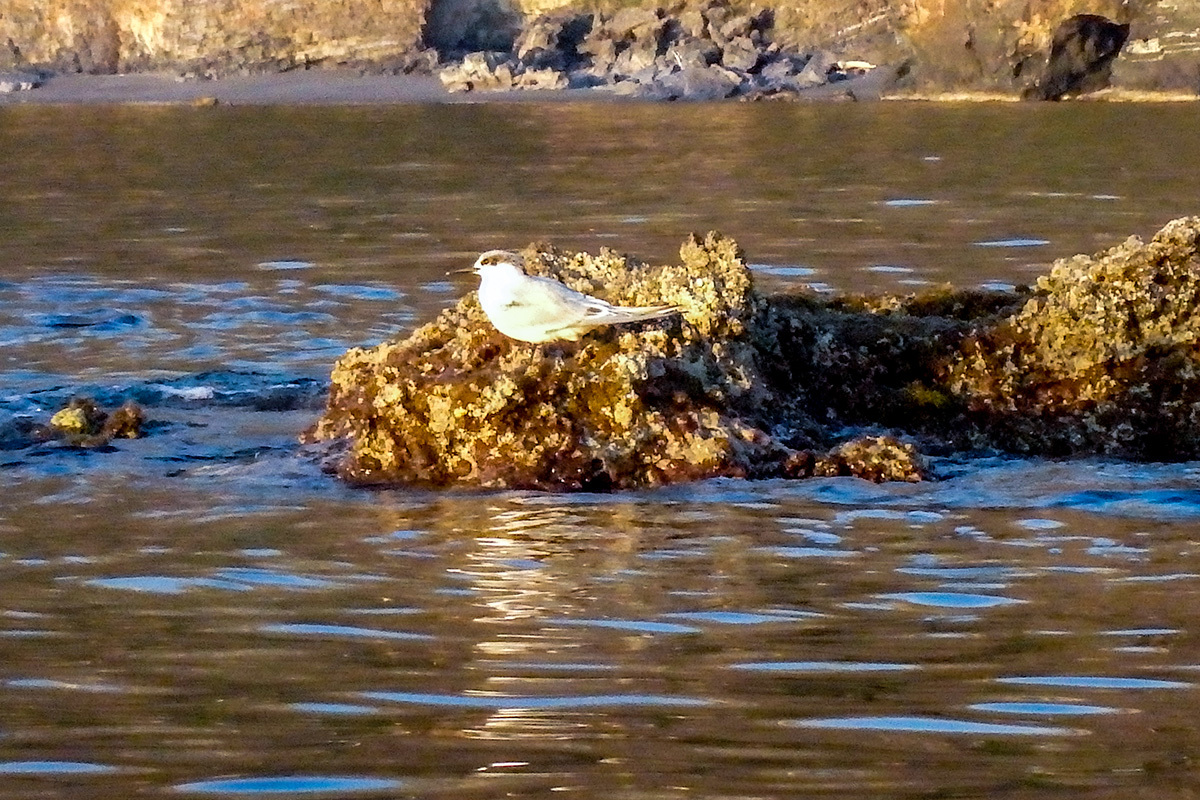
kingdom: Animalia
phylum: Chordata
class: Aves
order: Charadriiformes
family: Laridae
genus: Thalasseus
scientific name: Thalasseus sandvicensis
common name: Sandwich tern
